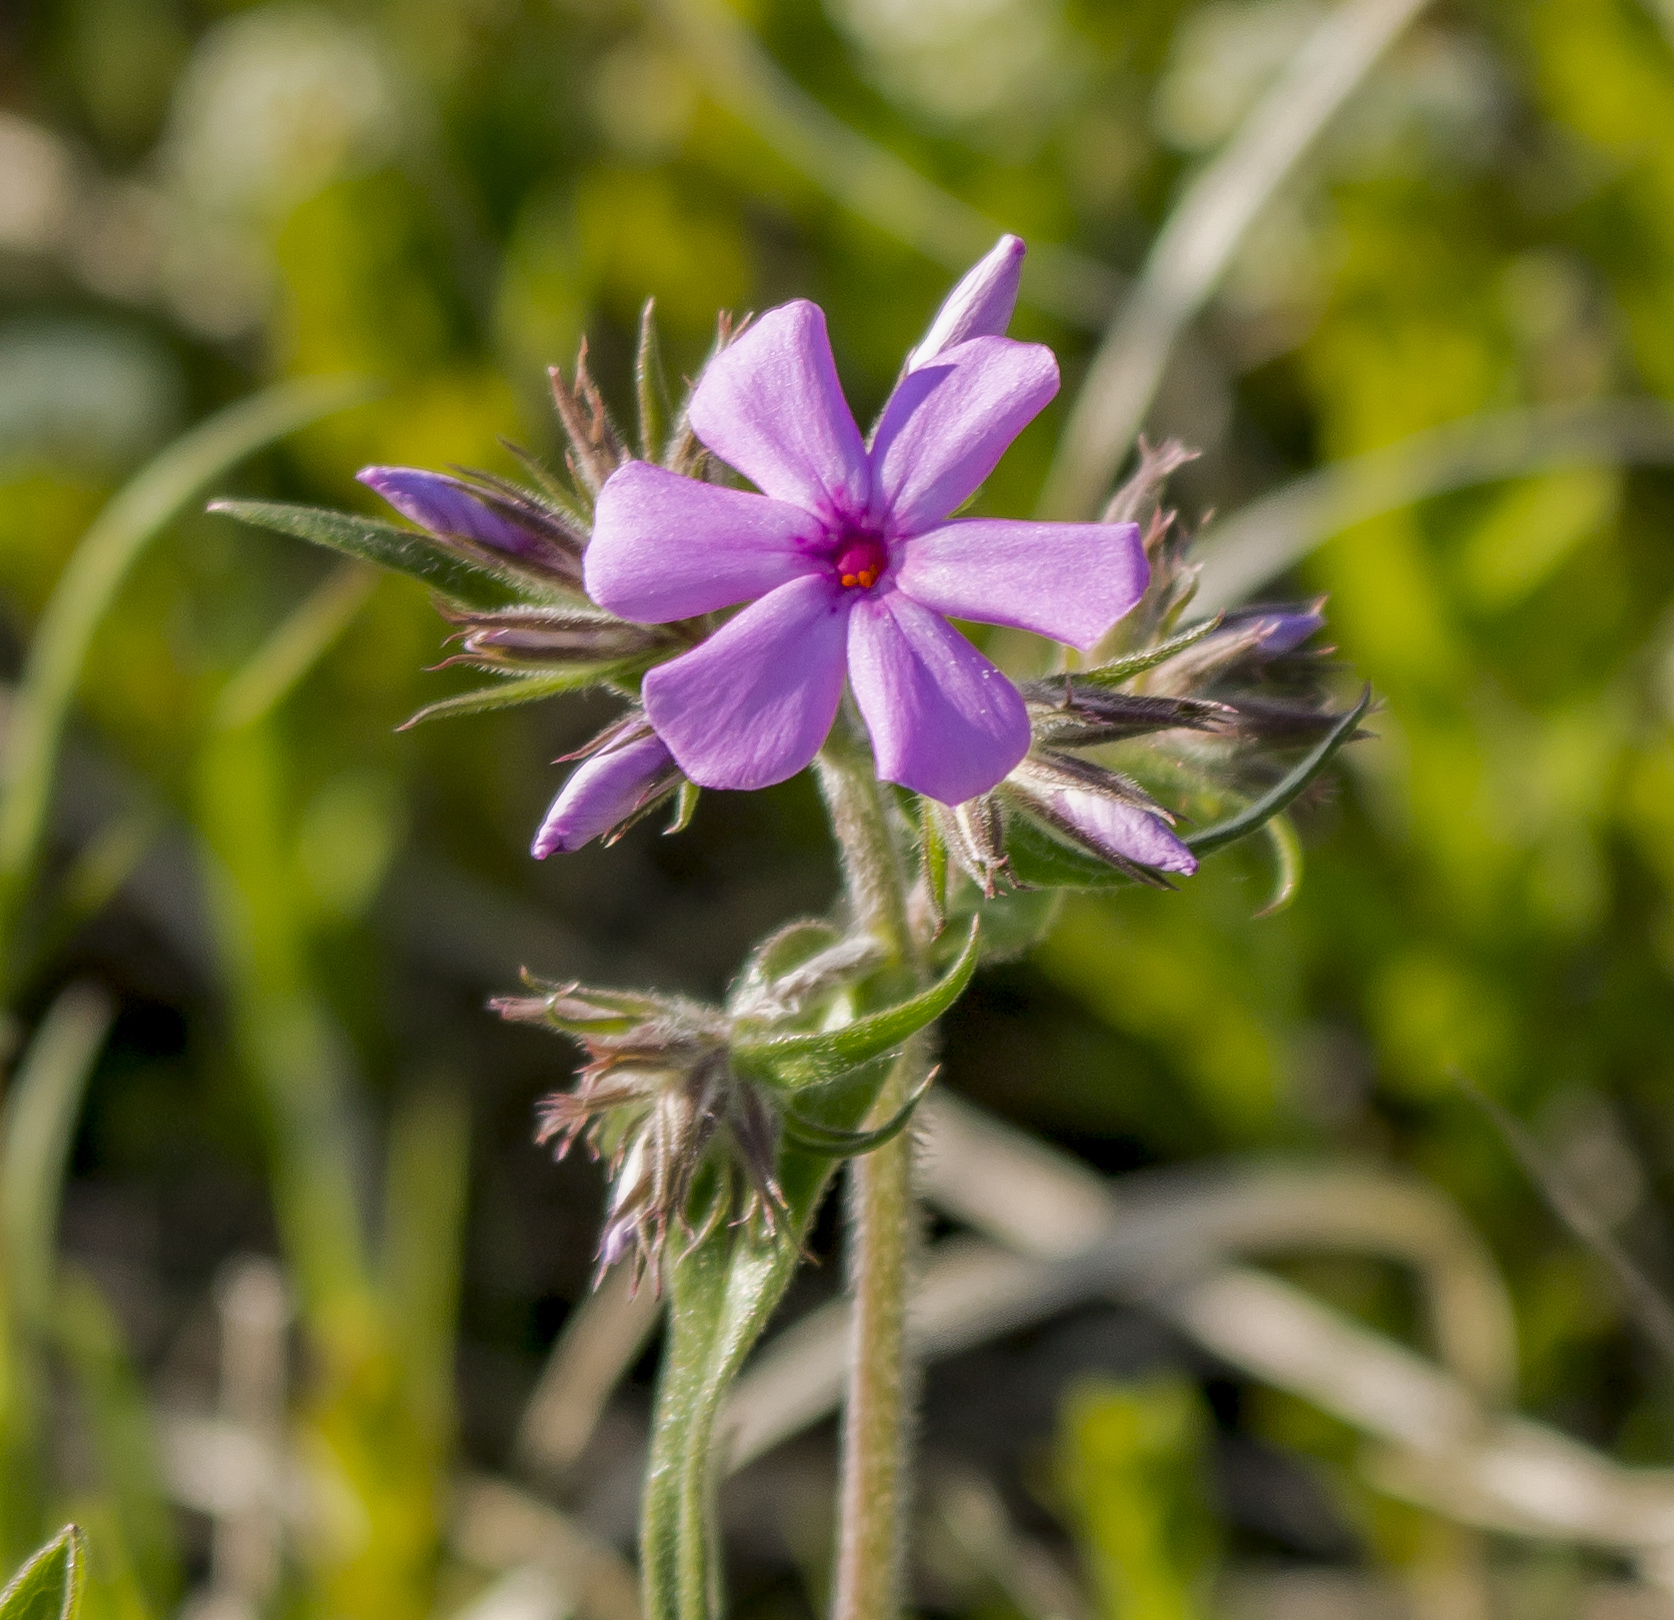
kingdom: Plantae
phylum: Tracheophyta
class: Magnoliopsida
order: Ericales
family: Polemoniaceae
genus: Phlox
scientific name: Phlox pilosa
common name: Prairie phlox
